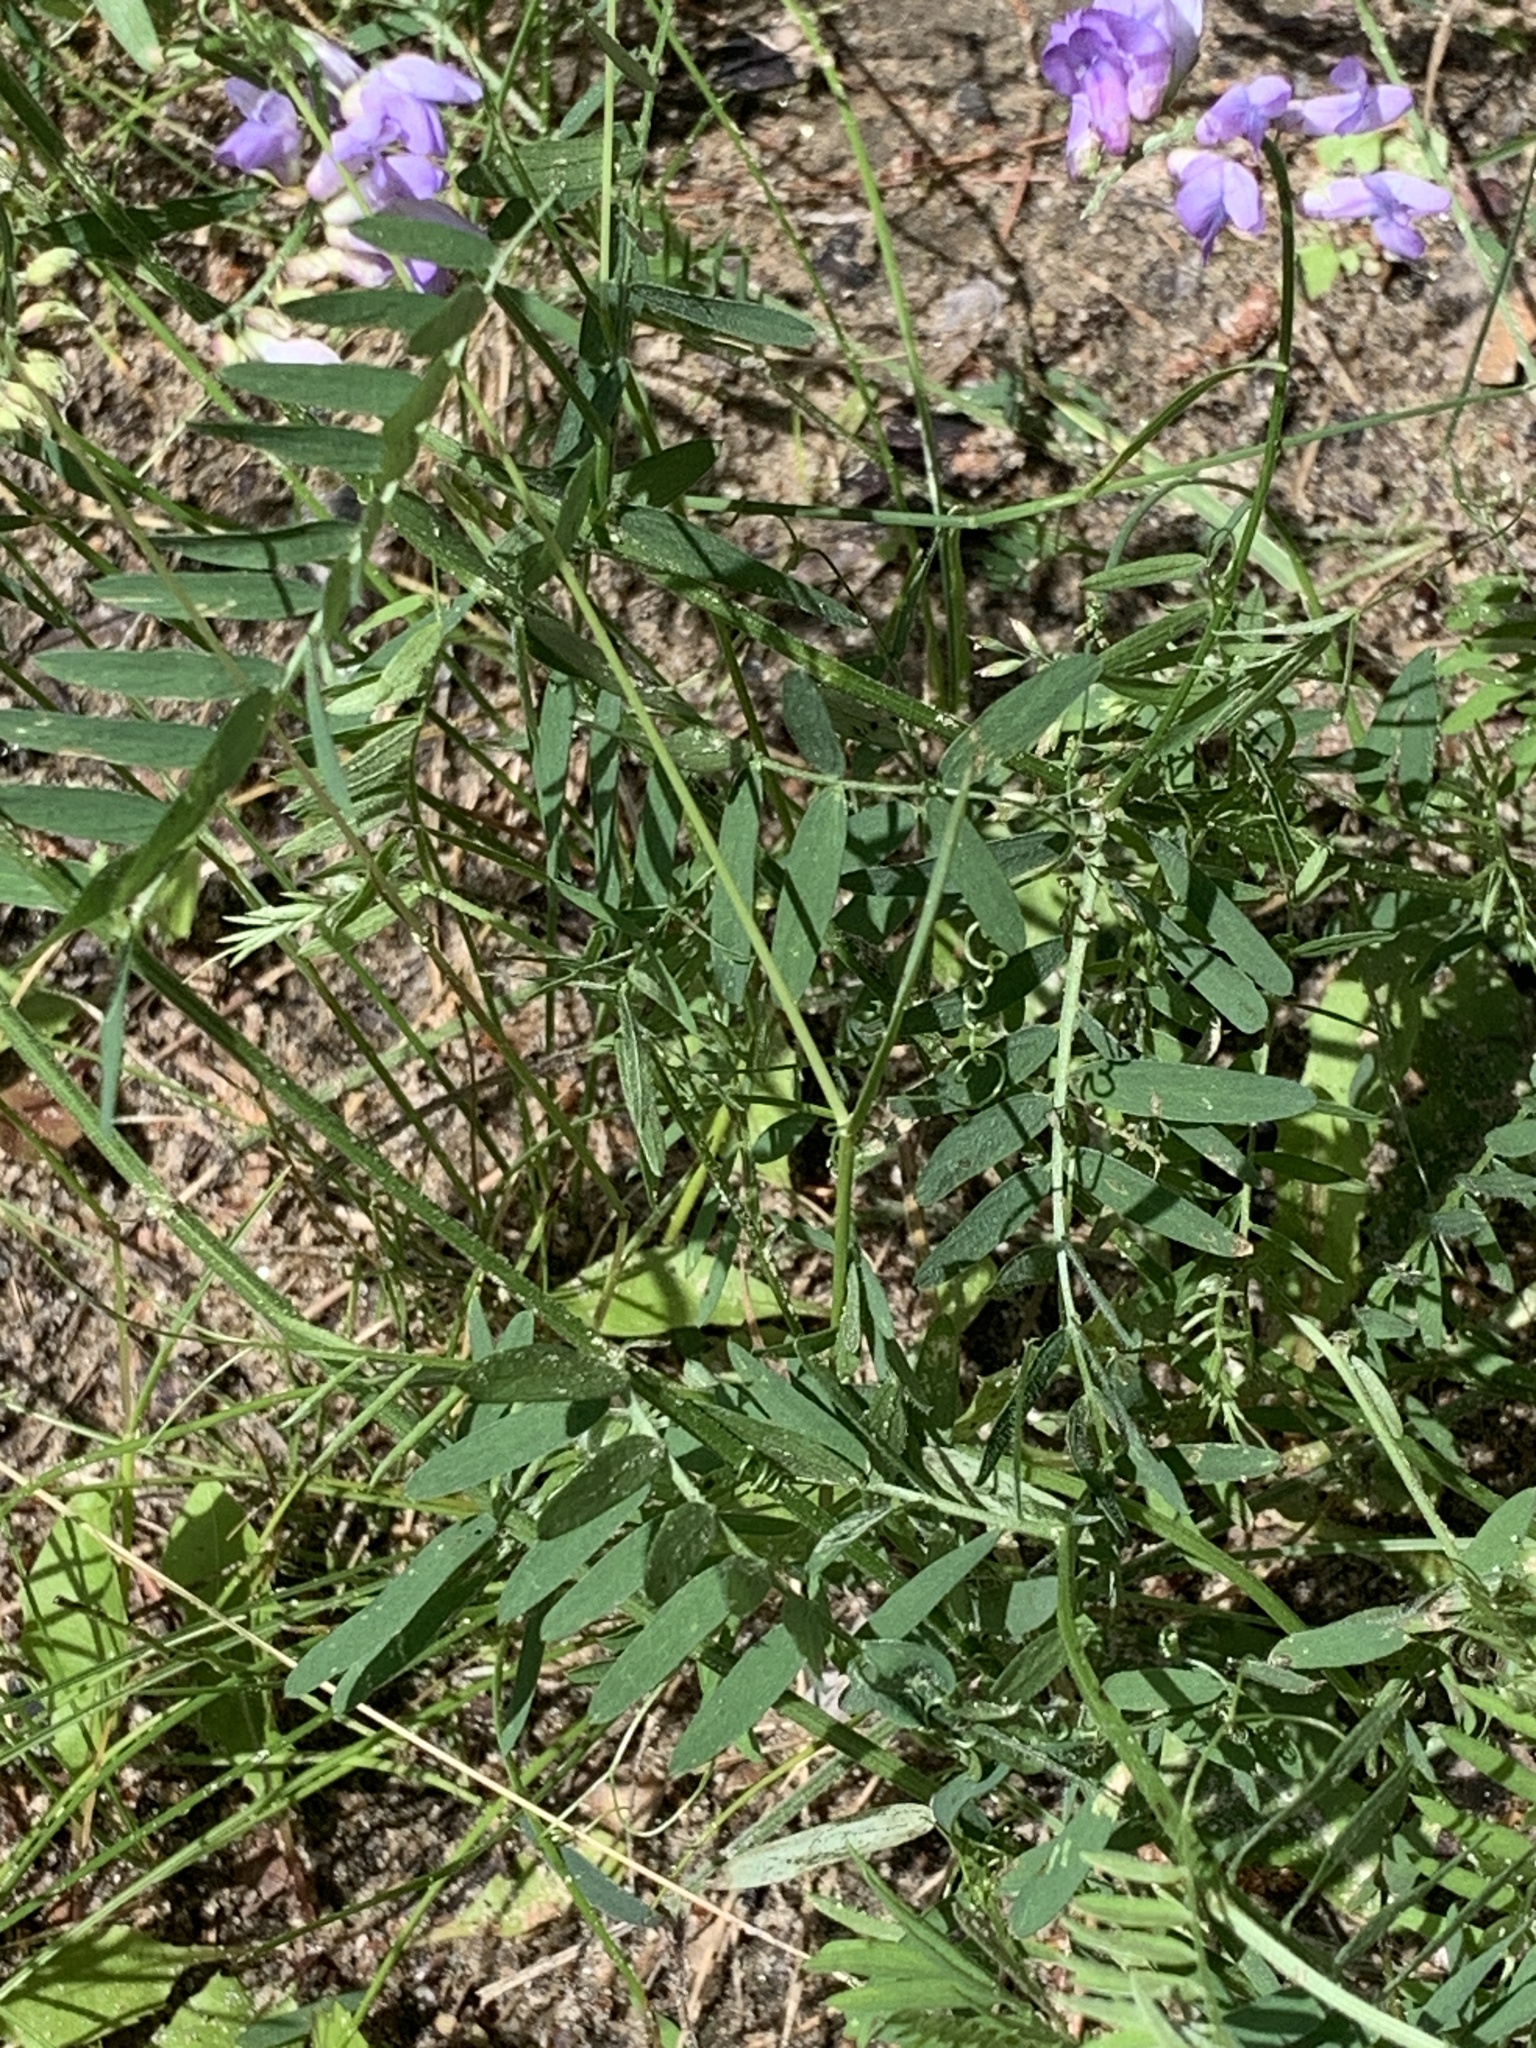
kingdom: Plantae
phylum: Tracheophyta
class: Magnoliopsida
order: Fabales
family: Fabaceae
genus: Vicia
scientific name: Vicia cracca
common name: Bird vetch
